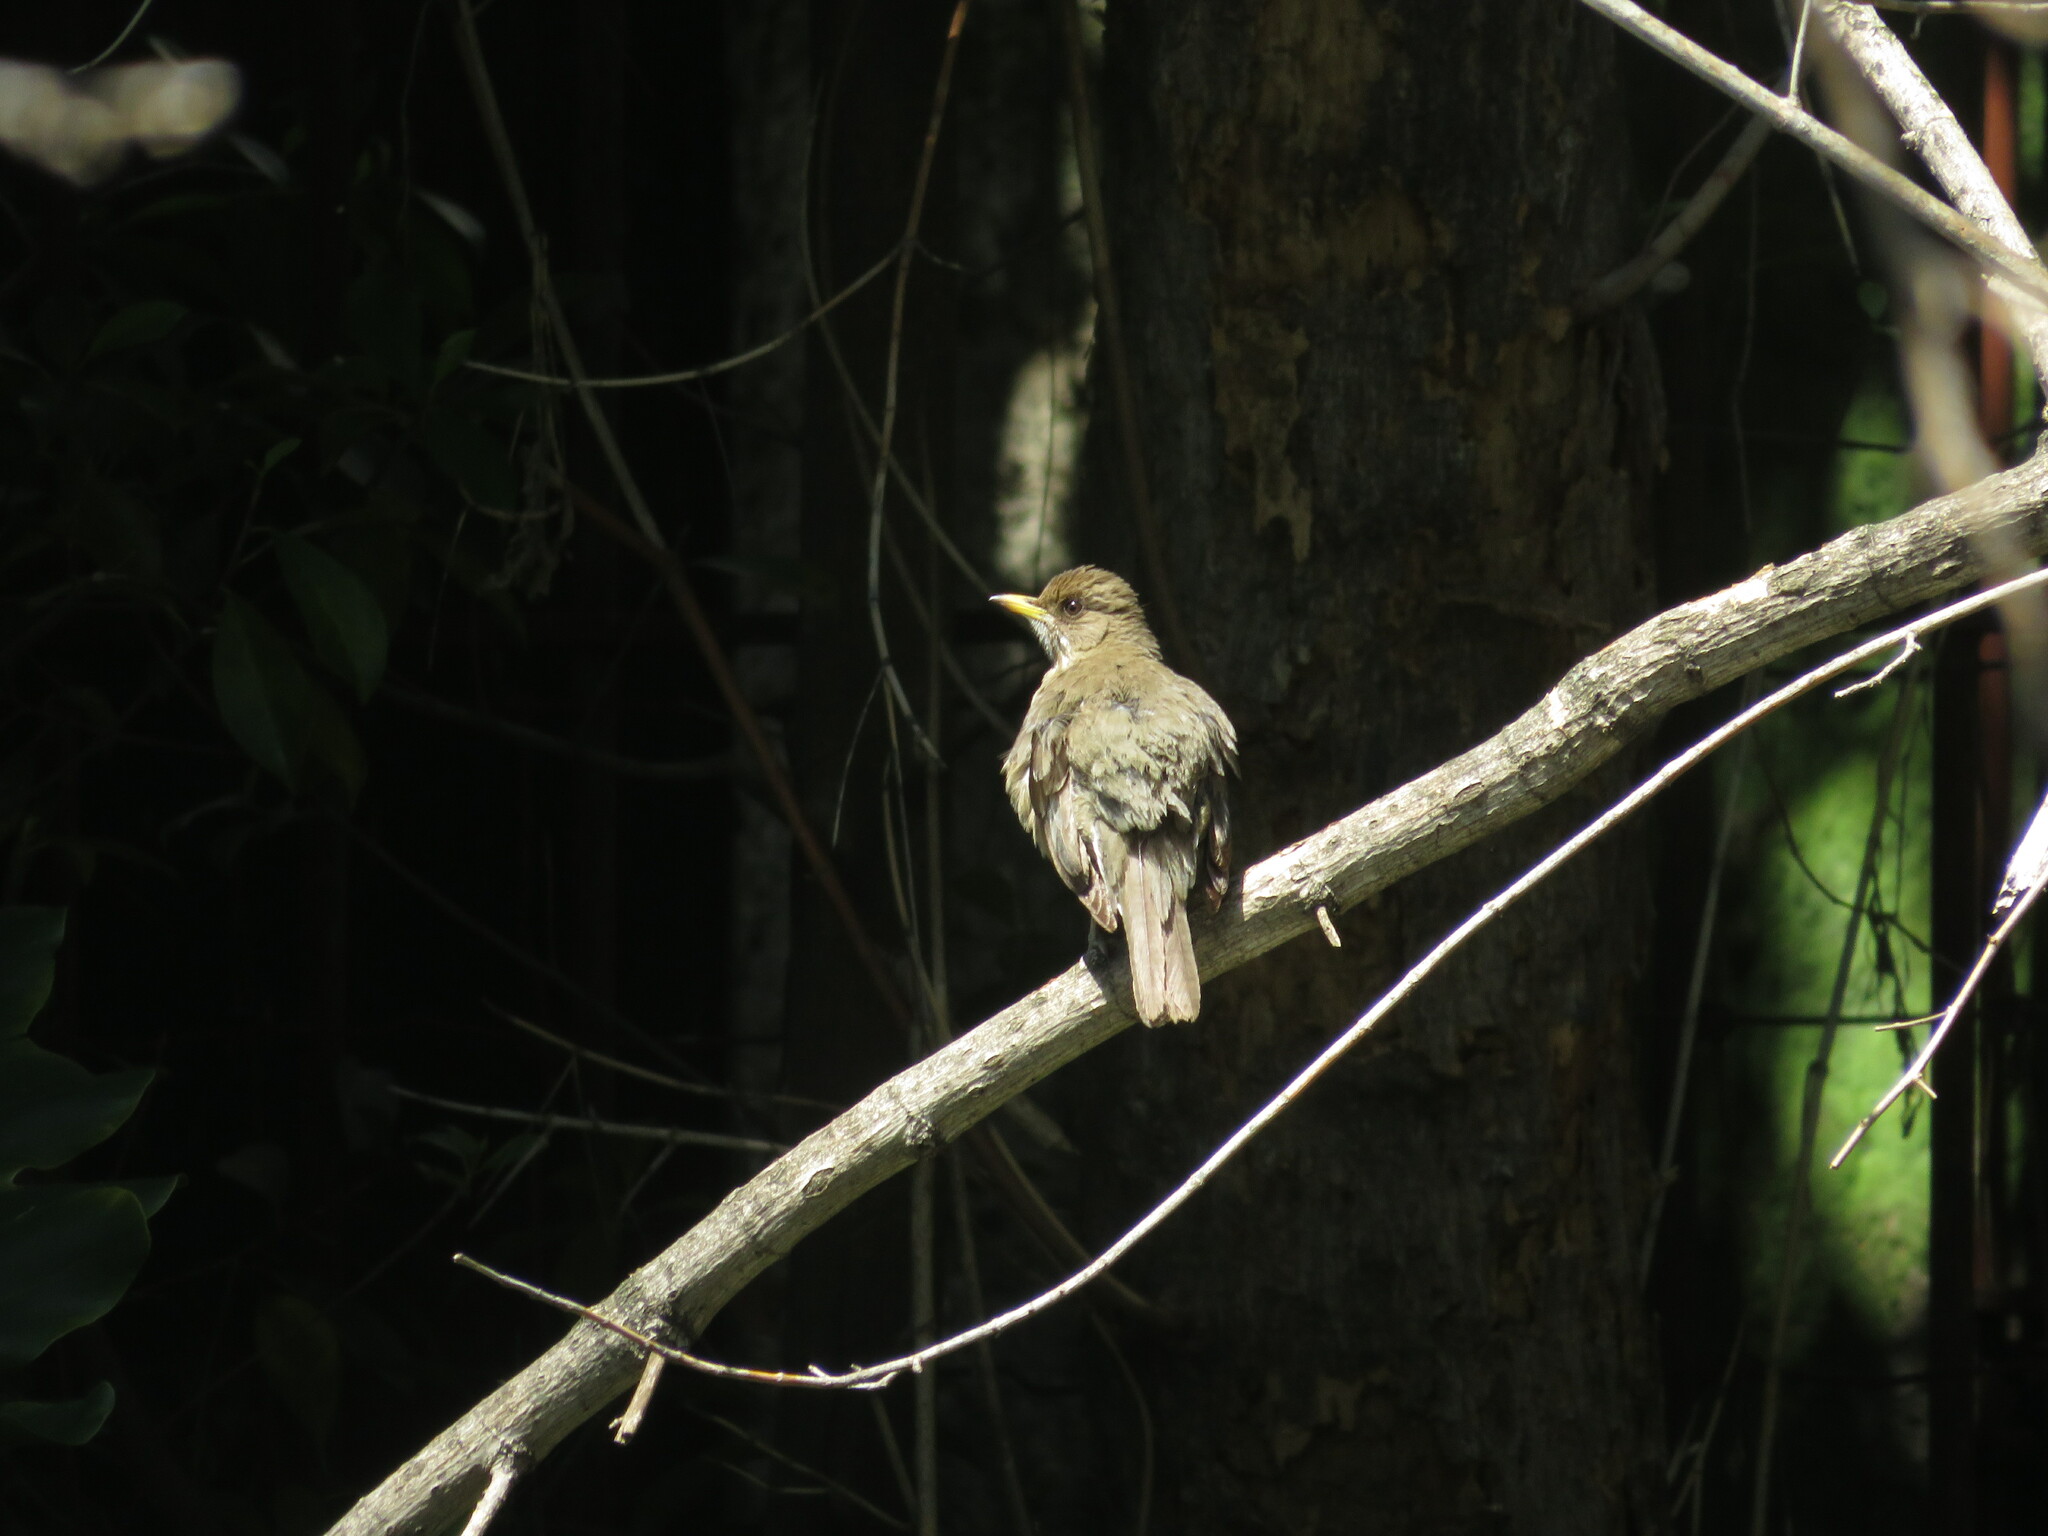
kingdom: Animalia
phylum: Chordata
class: Aves
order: Passeriformes
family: Turdidae
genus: Turdus
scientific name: Turdus amaurochalinus
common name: Creamy-bellied thrush
